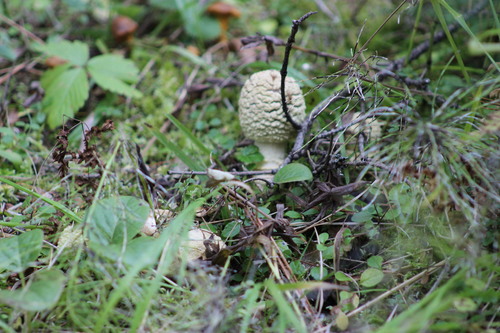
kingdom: Fungi
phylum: Basidiomycota
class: Agaricomycetes
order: Agaricales
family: Amanitaceae
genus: Amanita
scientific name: Amanita regalis
